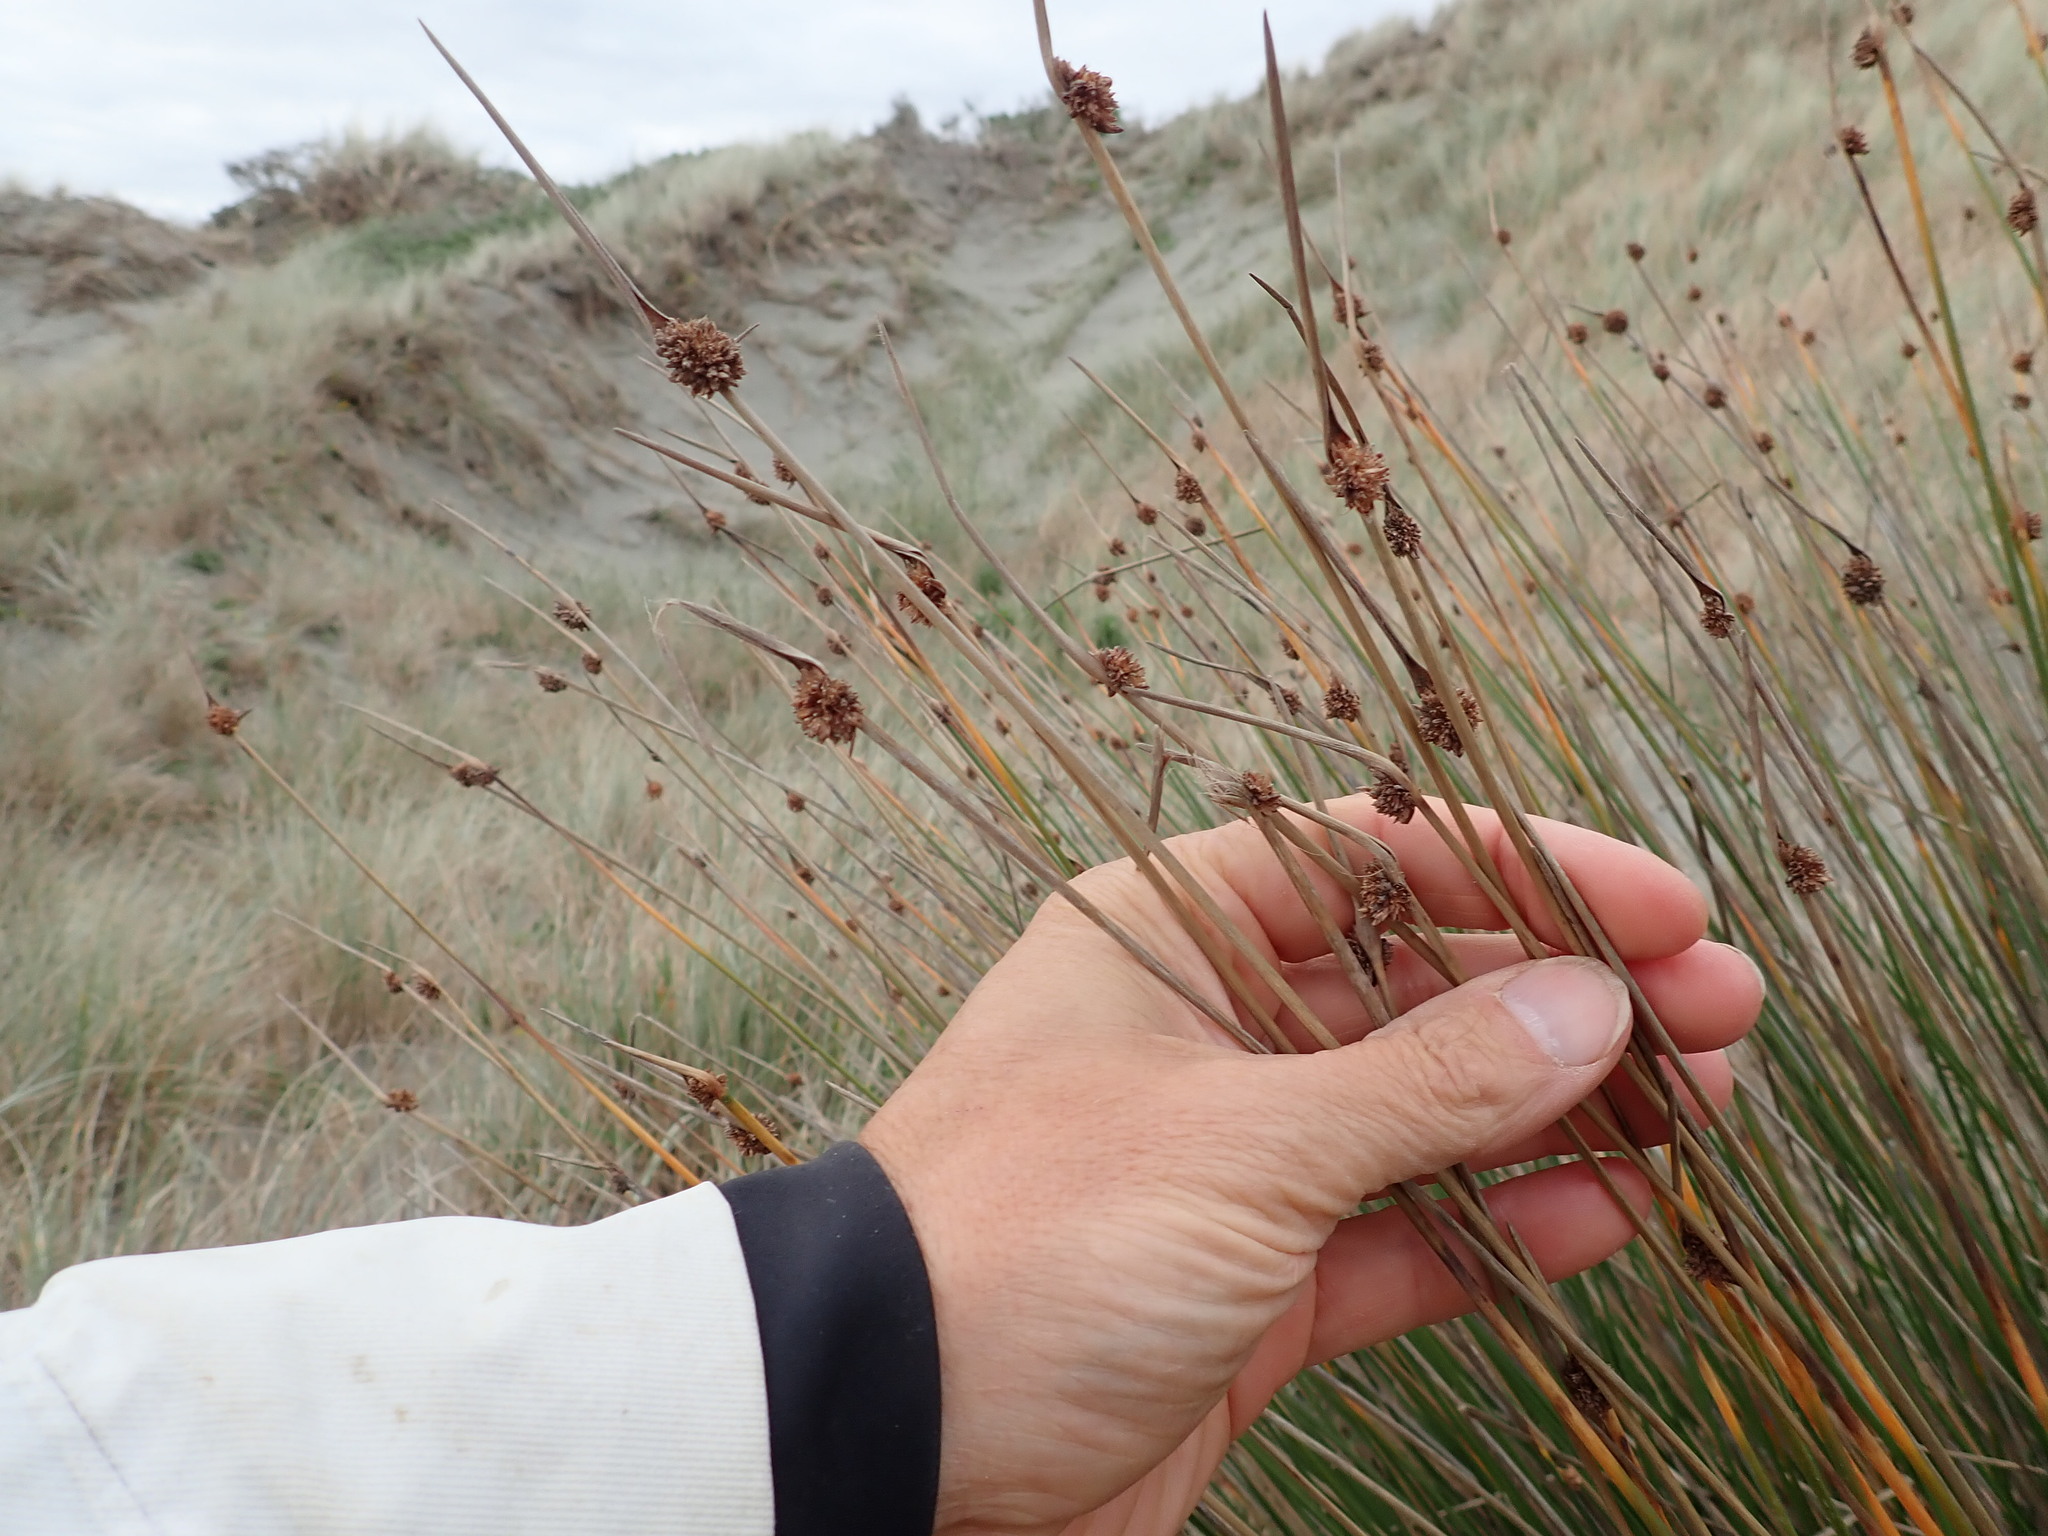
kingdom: Plantae
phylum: Tracheophyta
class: Liliopsida
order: Poales
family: Cyperaceae
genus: Ficinia
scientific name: Ficinia nodosa
